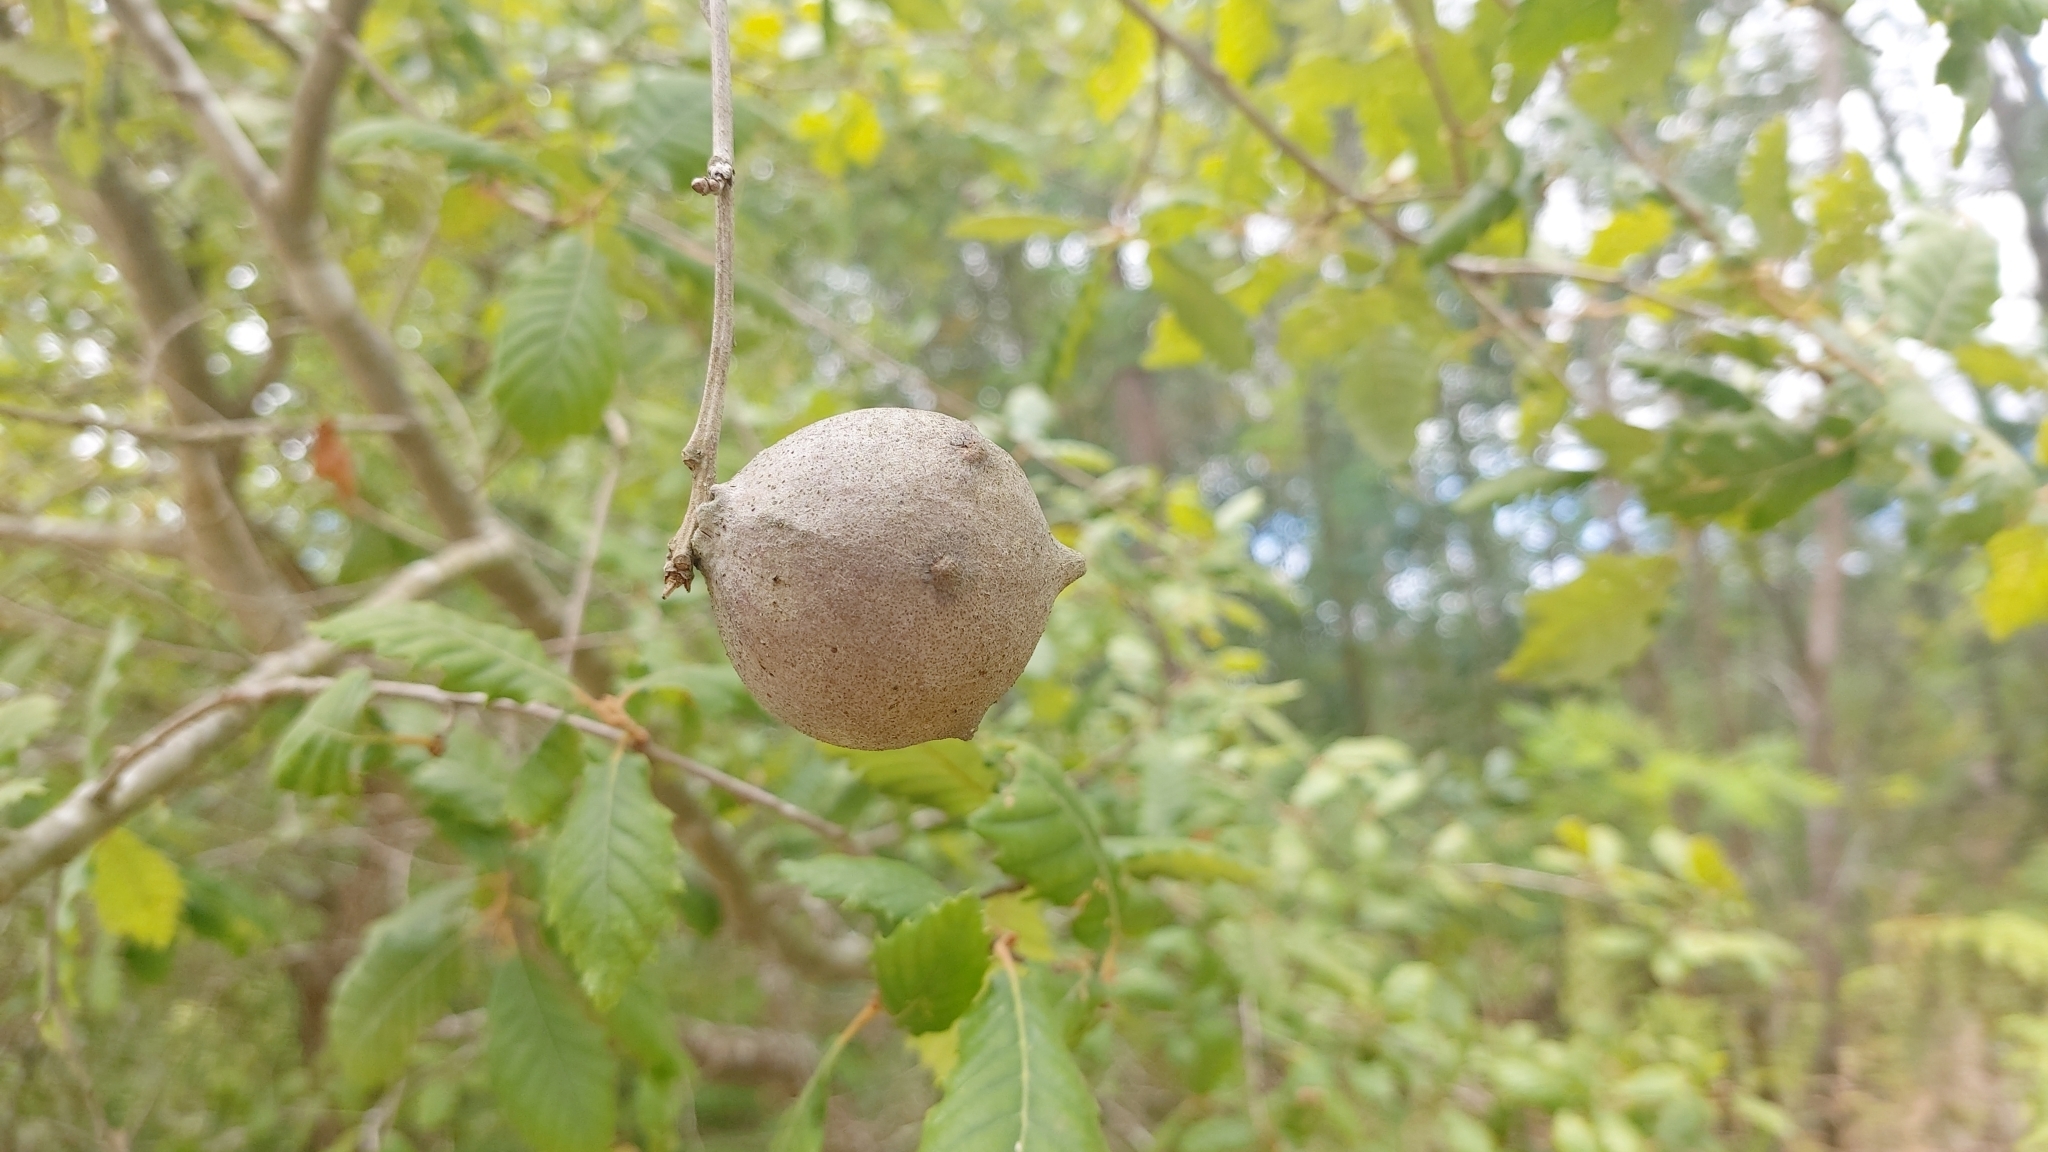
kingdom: Animalia
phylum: Arthropoda
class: Insecta
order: Hymenoptera
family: Cynipidae
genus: Andricus
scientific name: Andricus quercustozae
